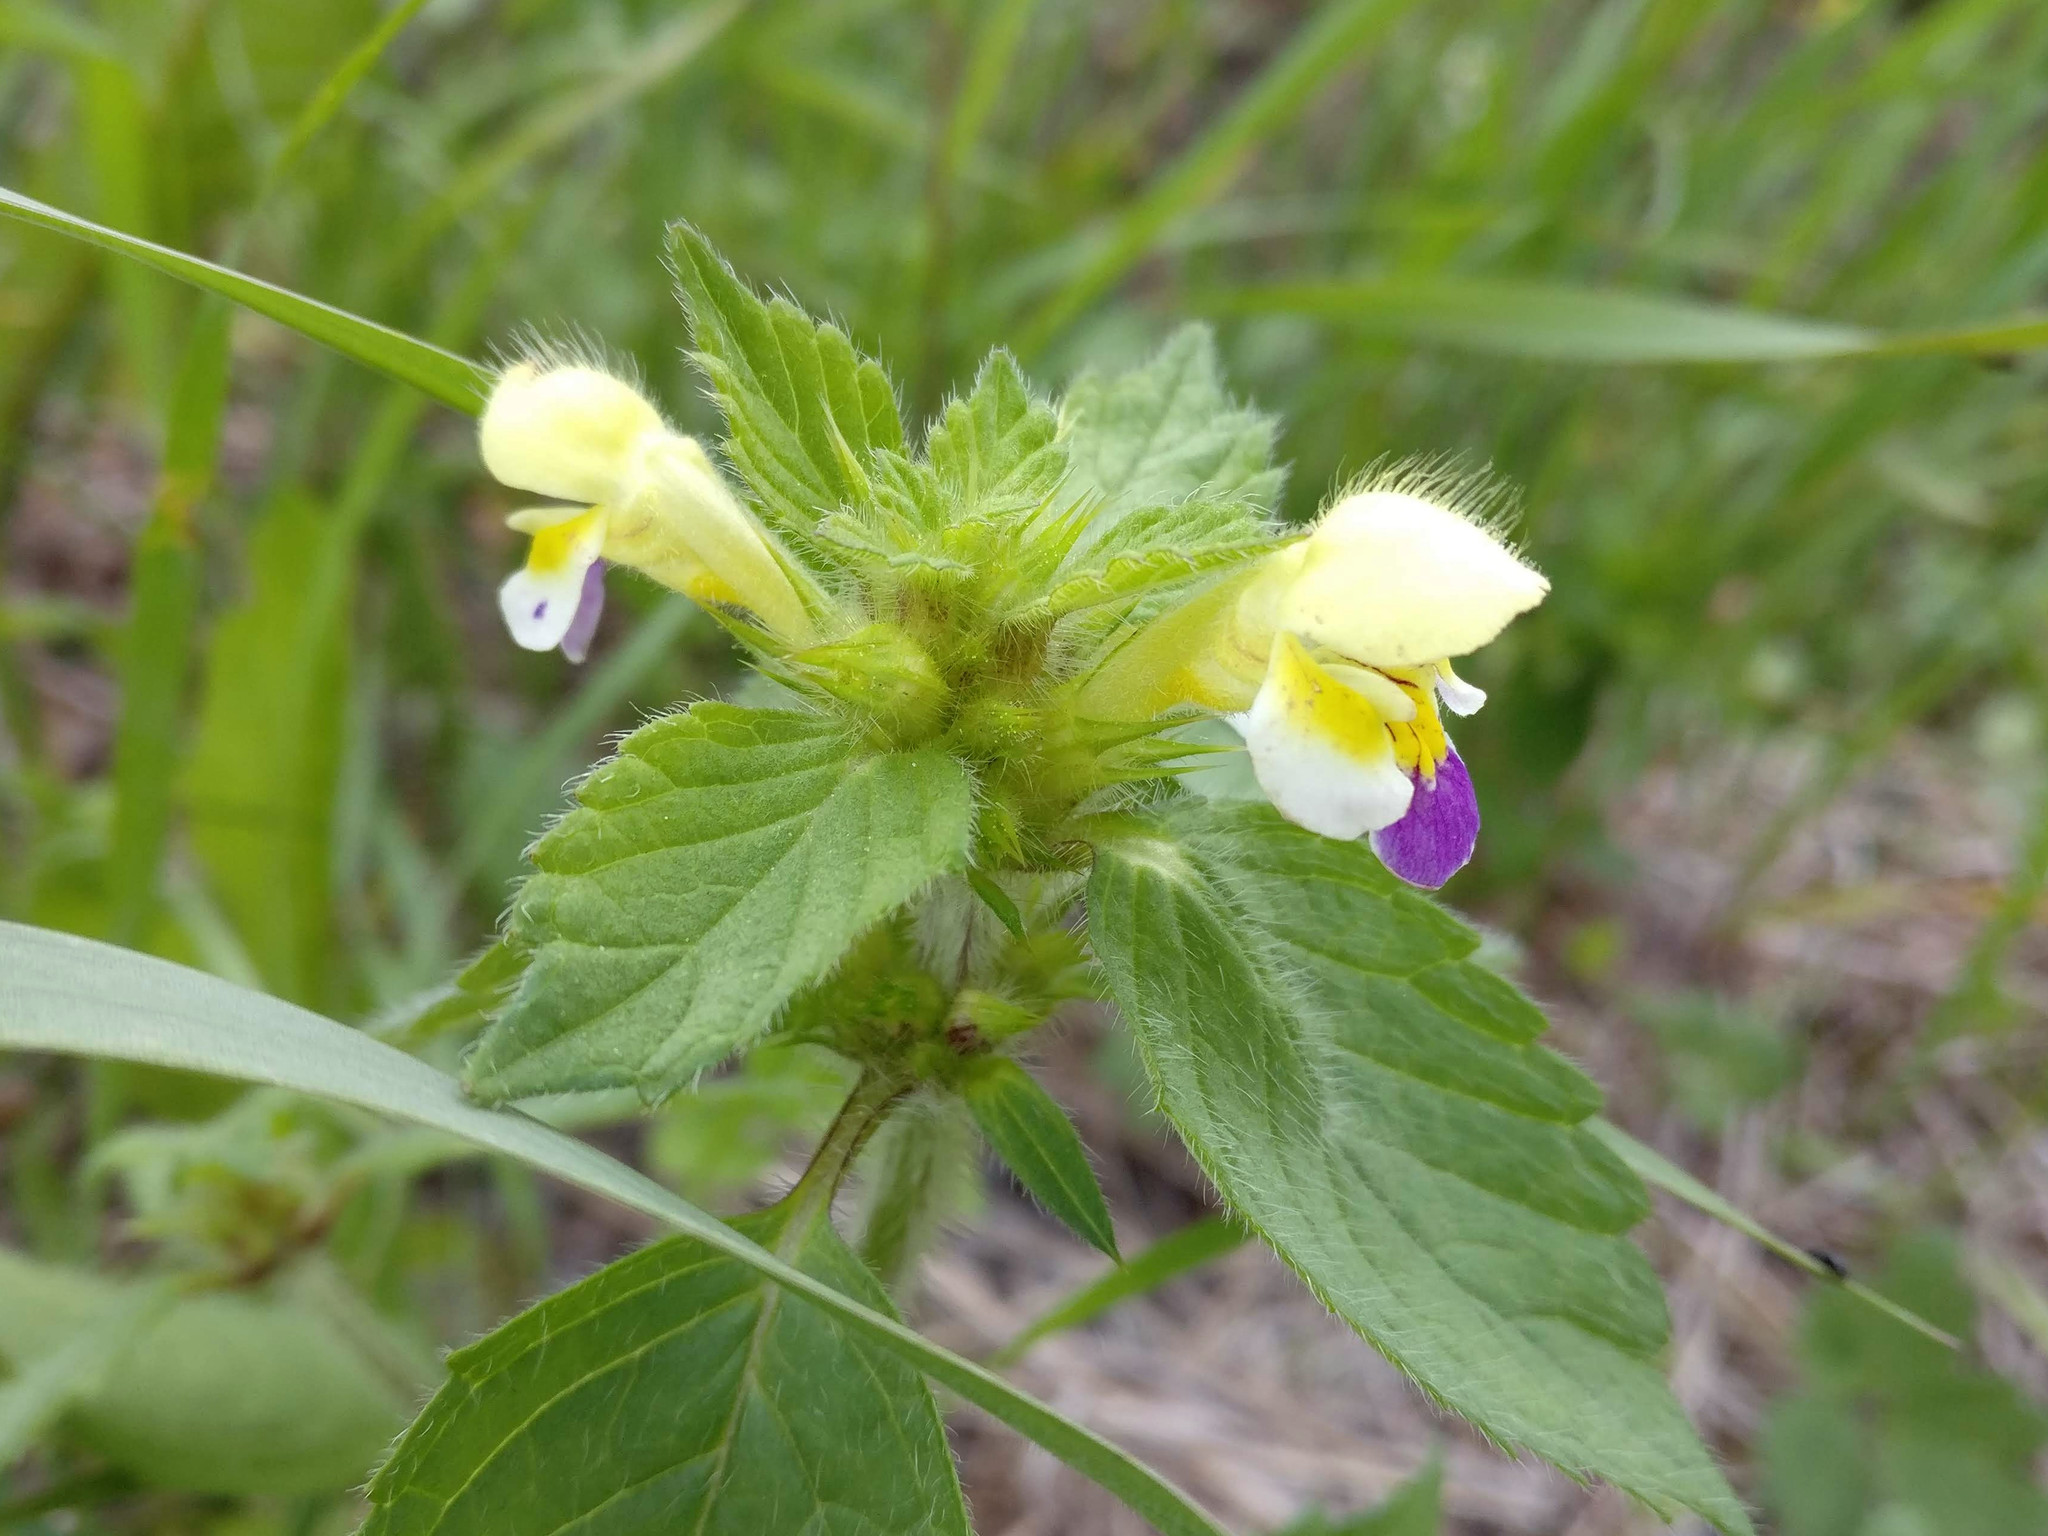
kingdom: Plantae
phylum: Tracheophyta
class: Magnoliopsida
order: Lamiales
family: Lamiaceae
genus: Galeopsis
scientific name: Galeopsis speciosa
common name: Large-flowered hemp-nettle
